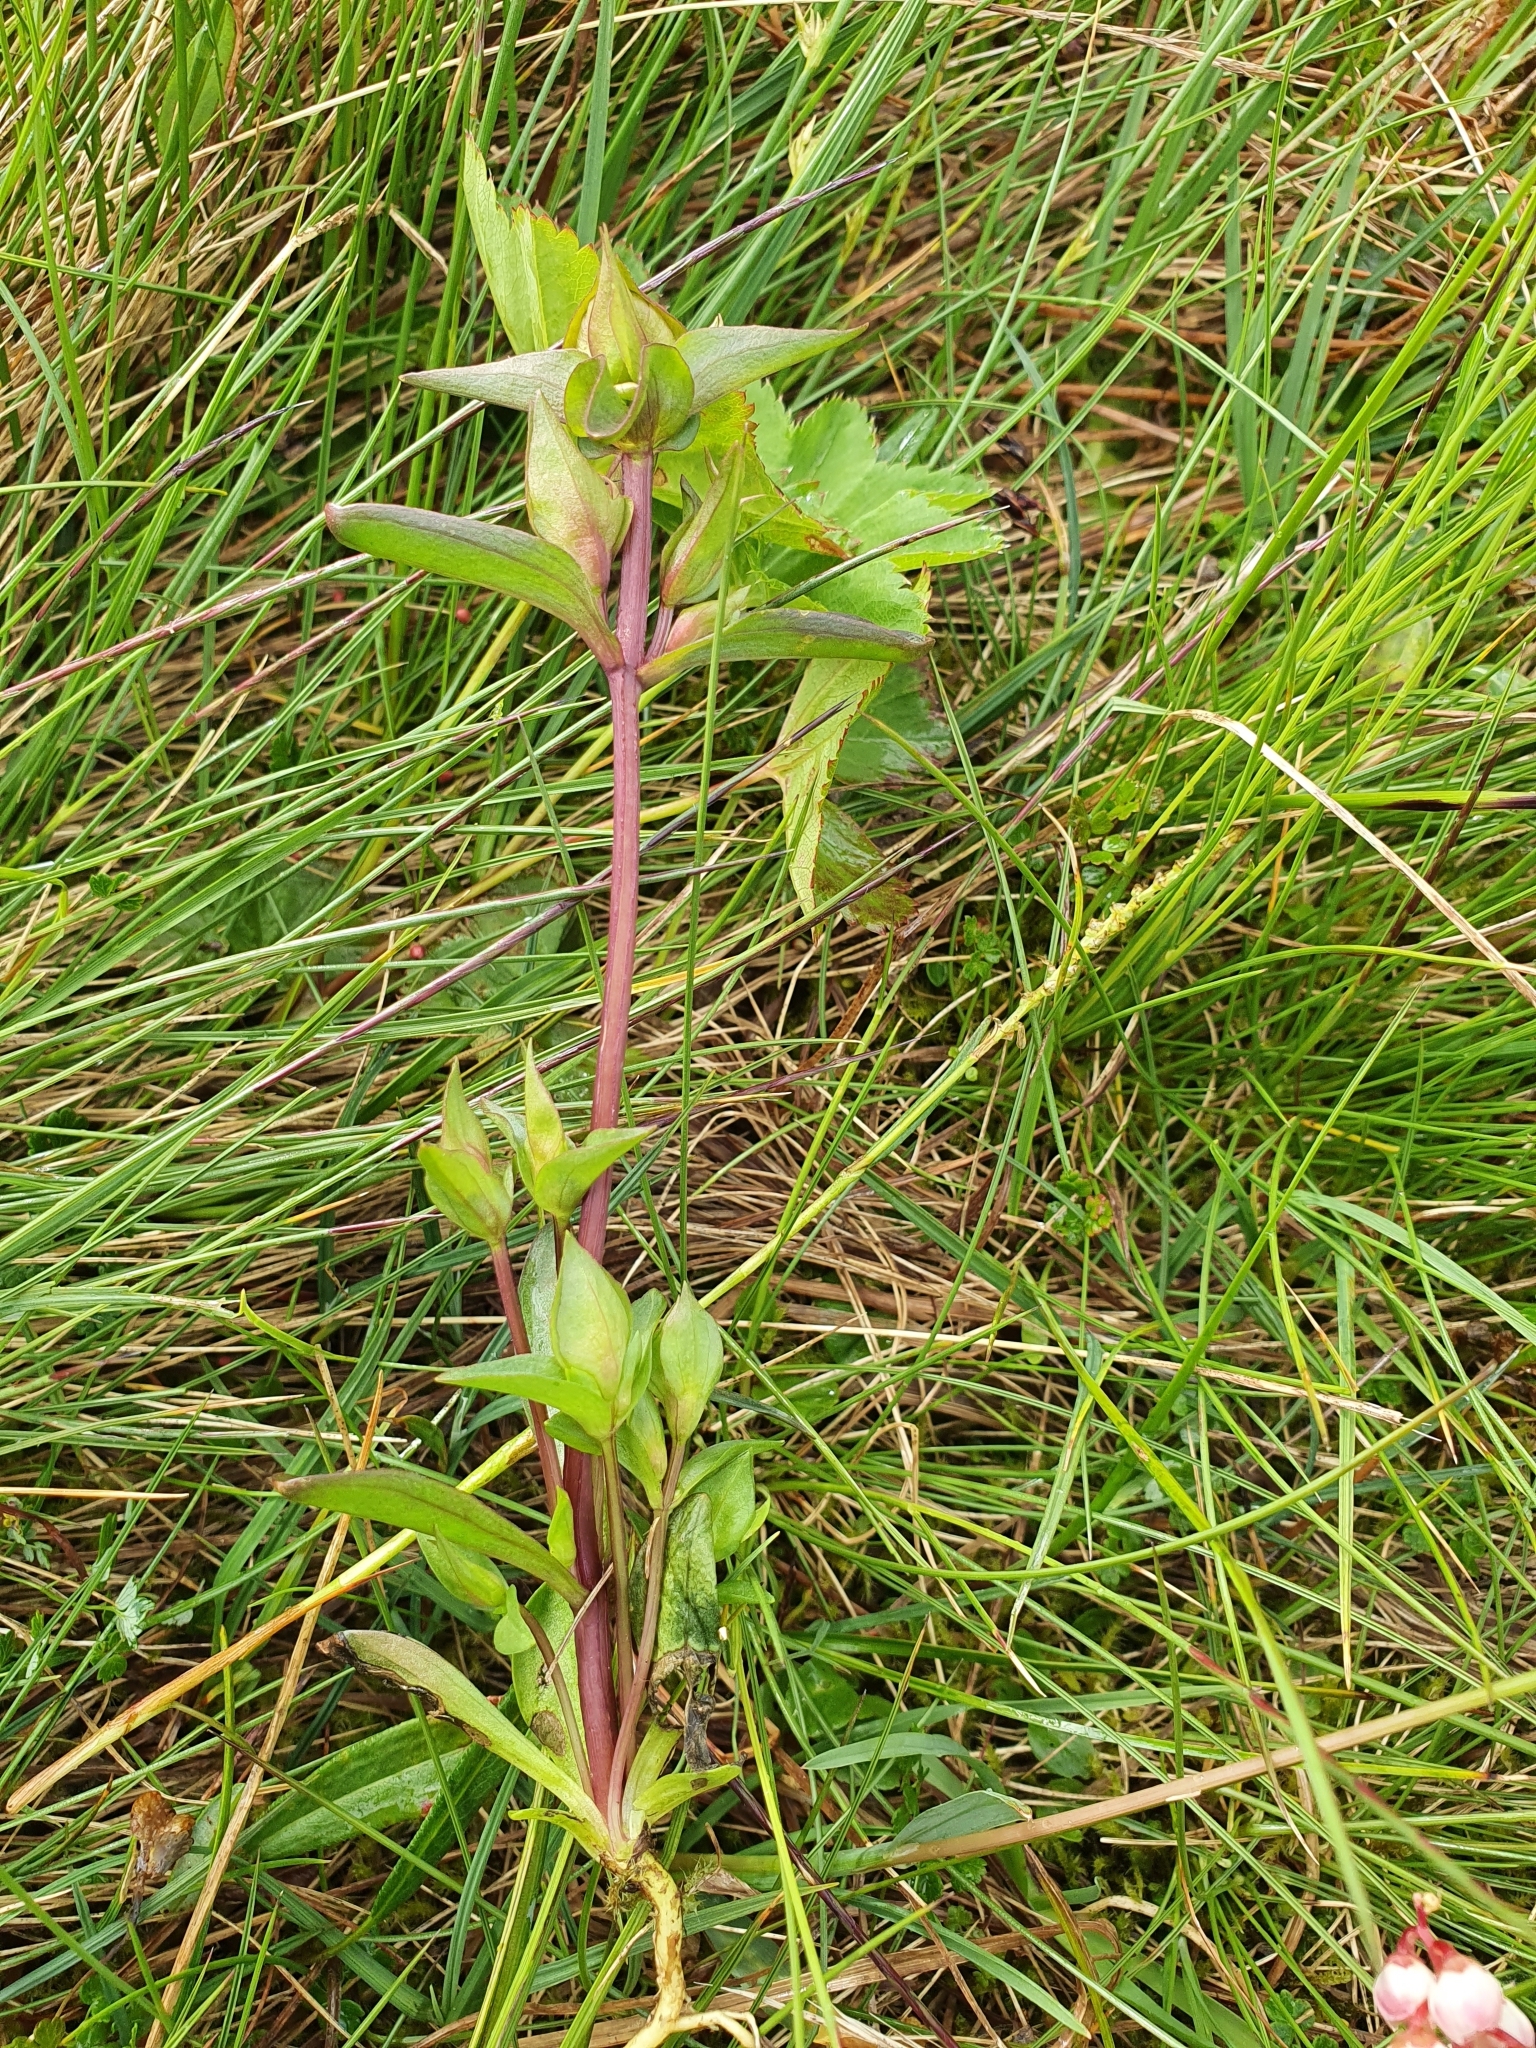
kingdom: Plantae
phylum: Tracheophyta
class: Magnoliopsida
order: Gentianales
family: Gentianaceae
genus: Gentianella
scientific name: Gentianella campestris
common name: Field gentian
